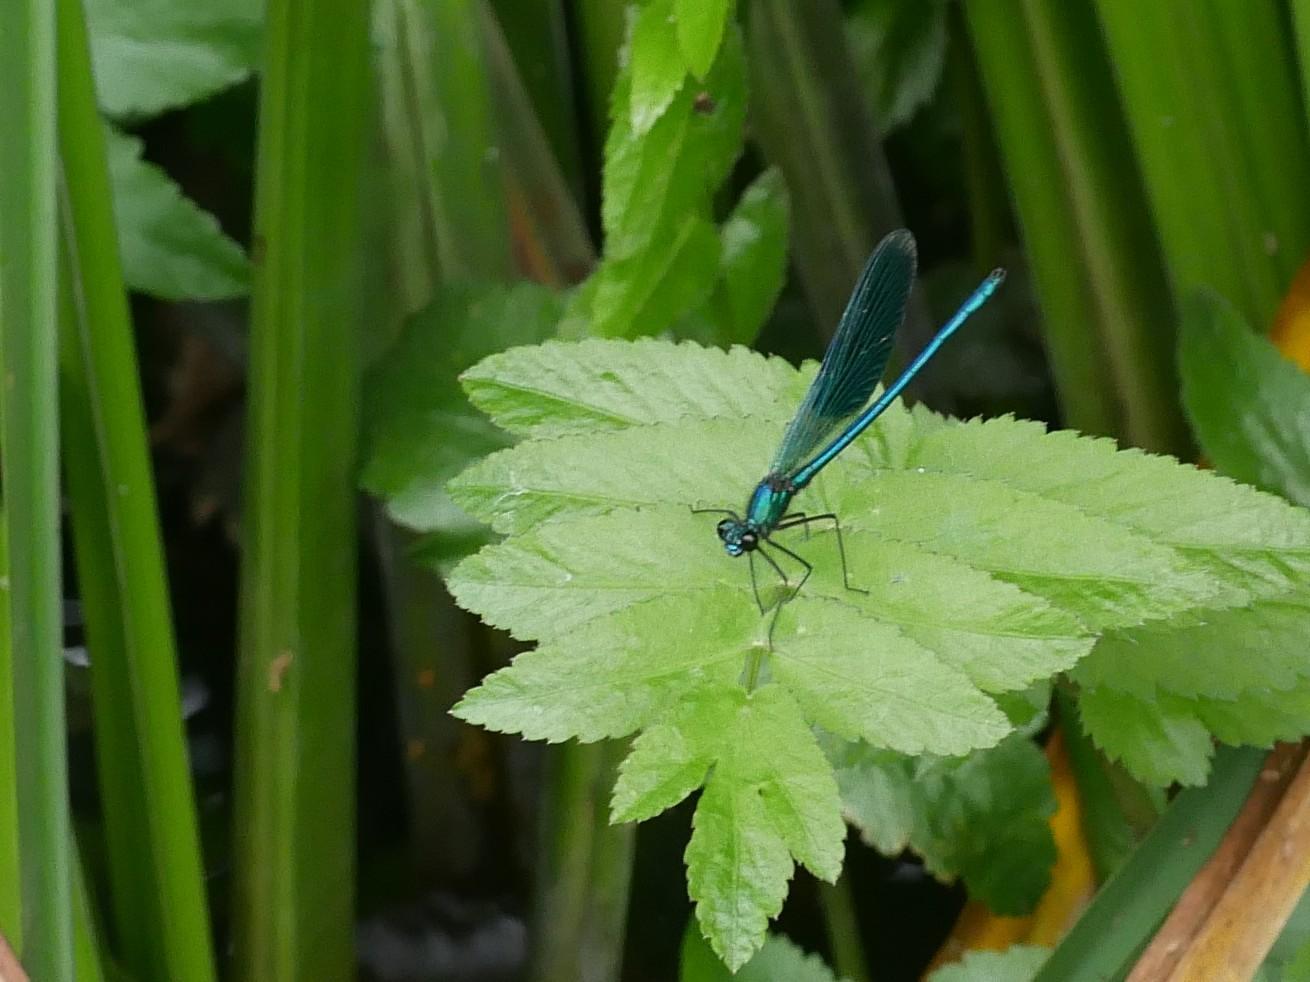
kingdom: Animalia
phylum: Arthropoda
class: Insecta
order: Odonata
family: Calopterygidae
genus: Calopteryx
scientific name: Calopteryx splendens
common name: Banded demoiselle
